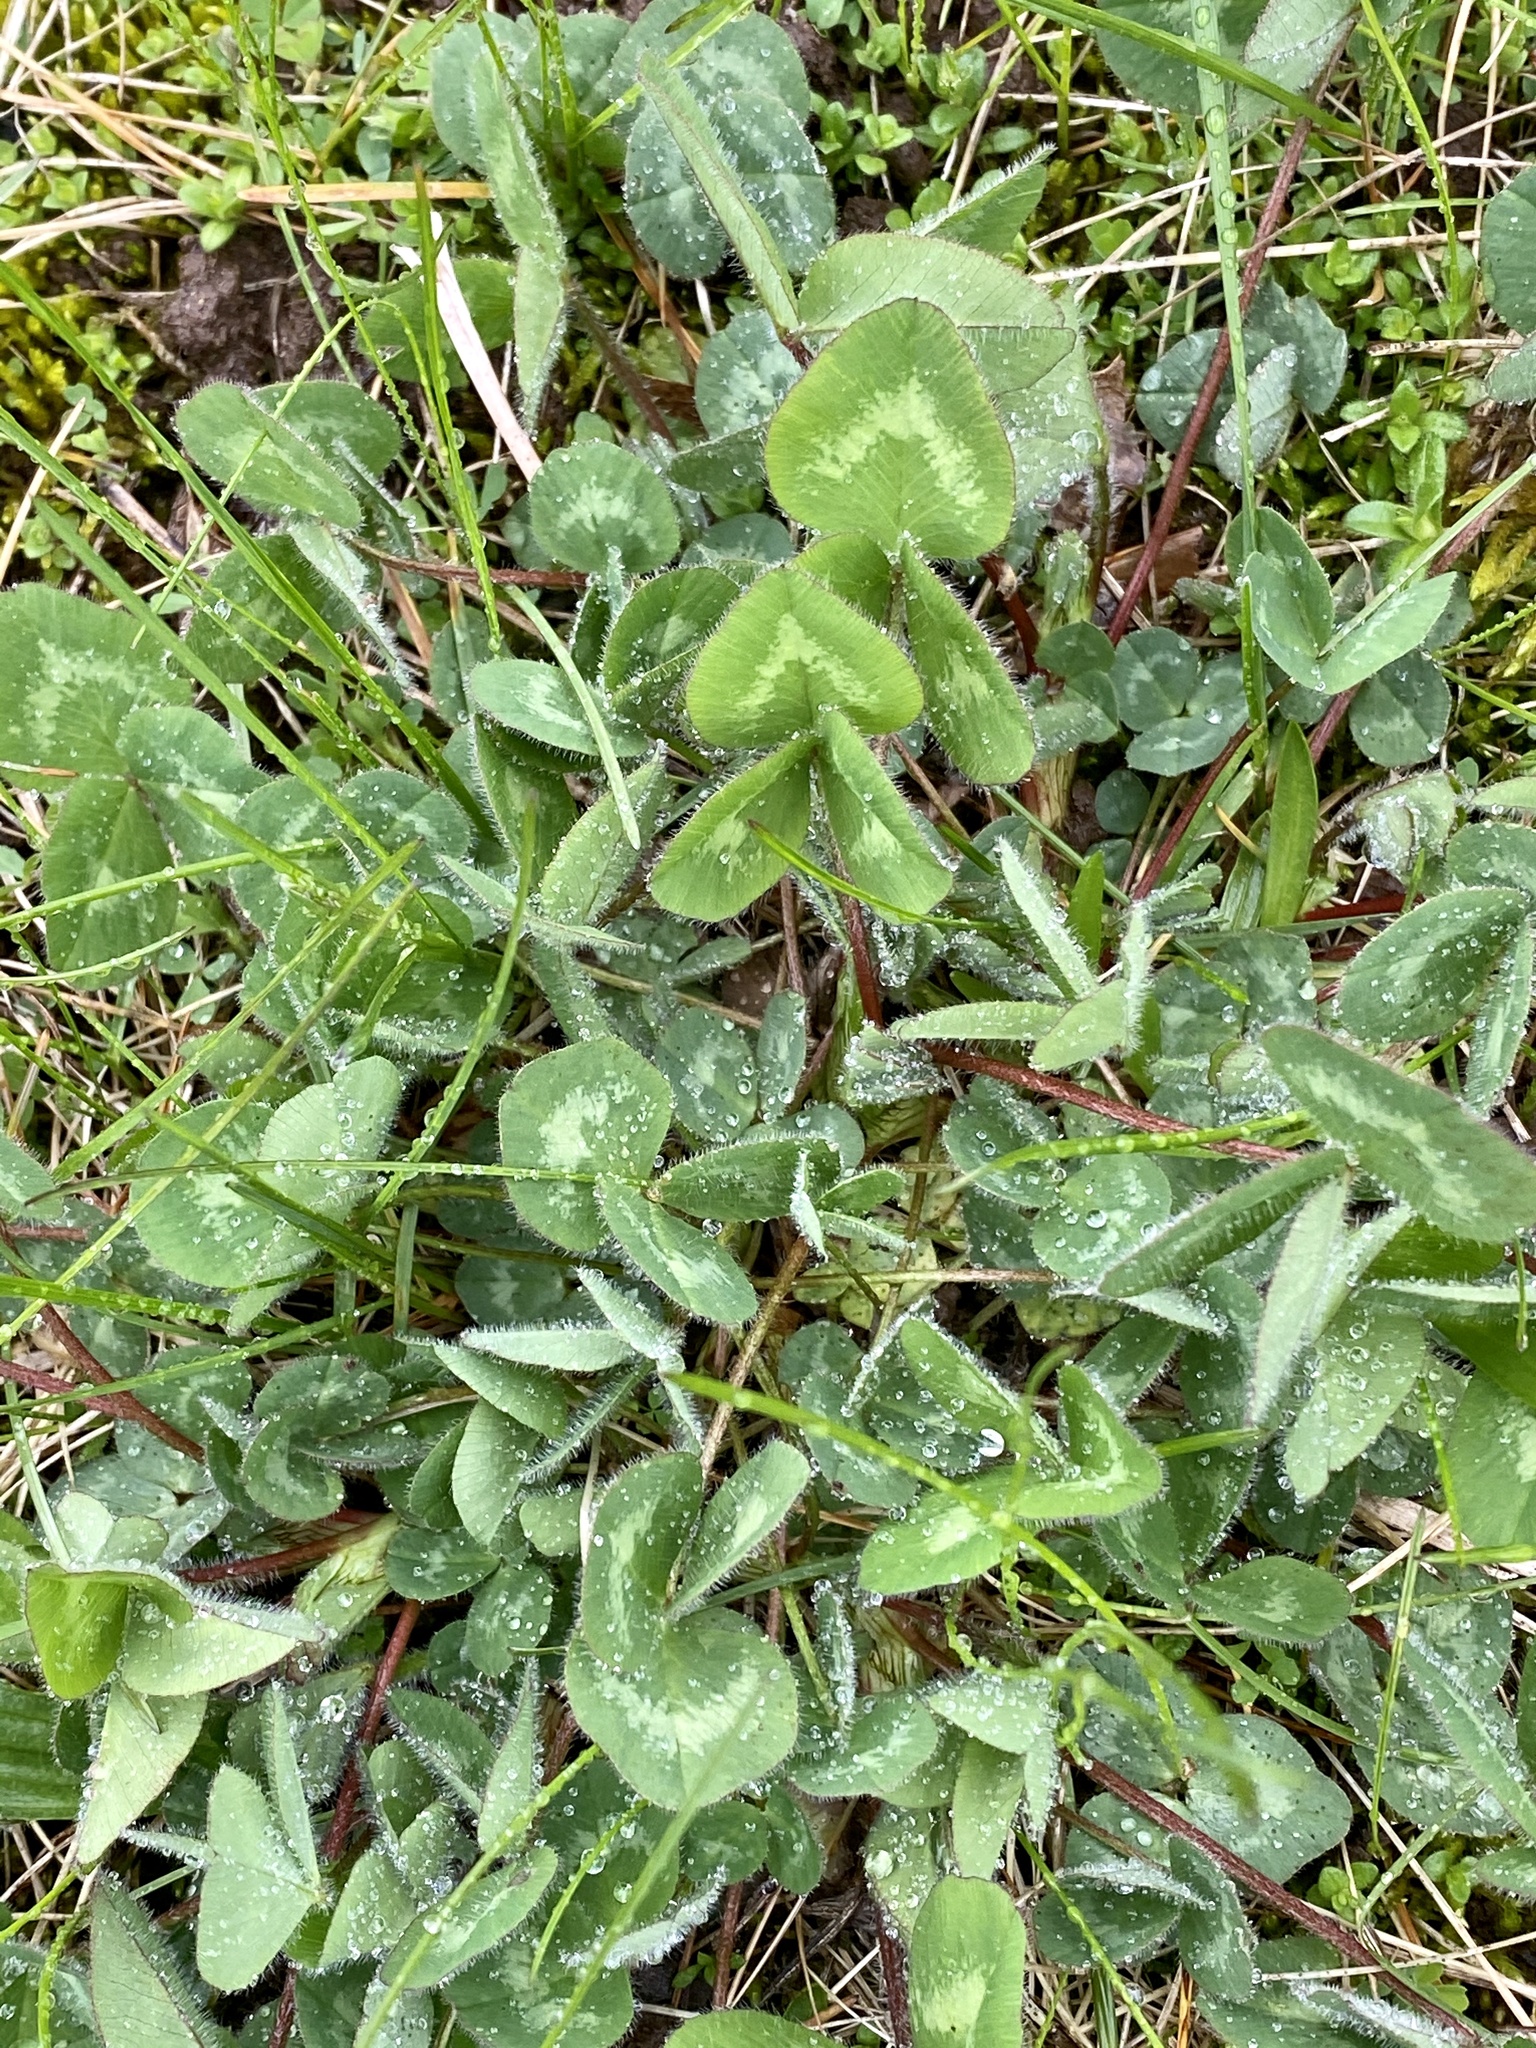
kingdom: Plantae
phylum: Tracheophyta
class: Magnoliopsida
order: Fabales
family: Fabaceae
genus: Trifolium
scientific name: Trifolium pratense
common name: Red clover
